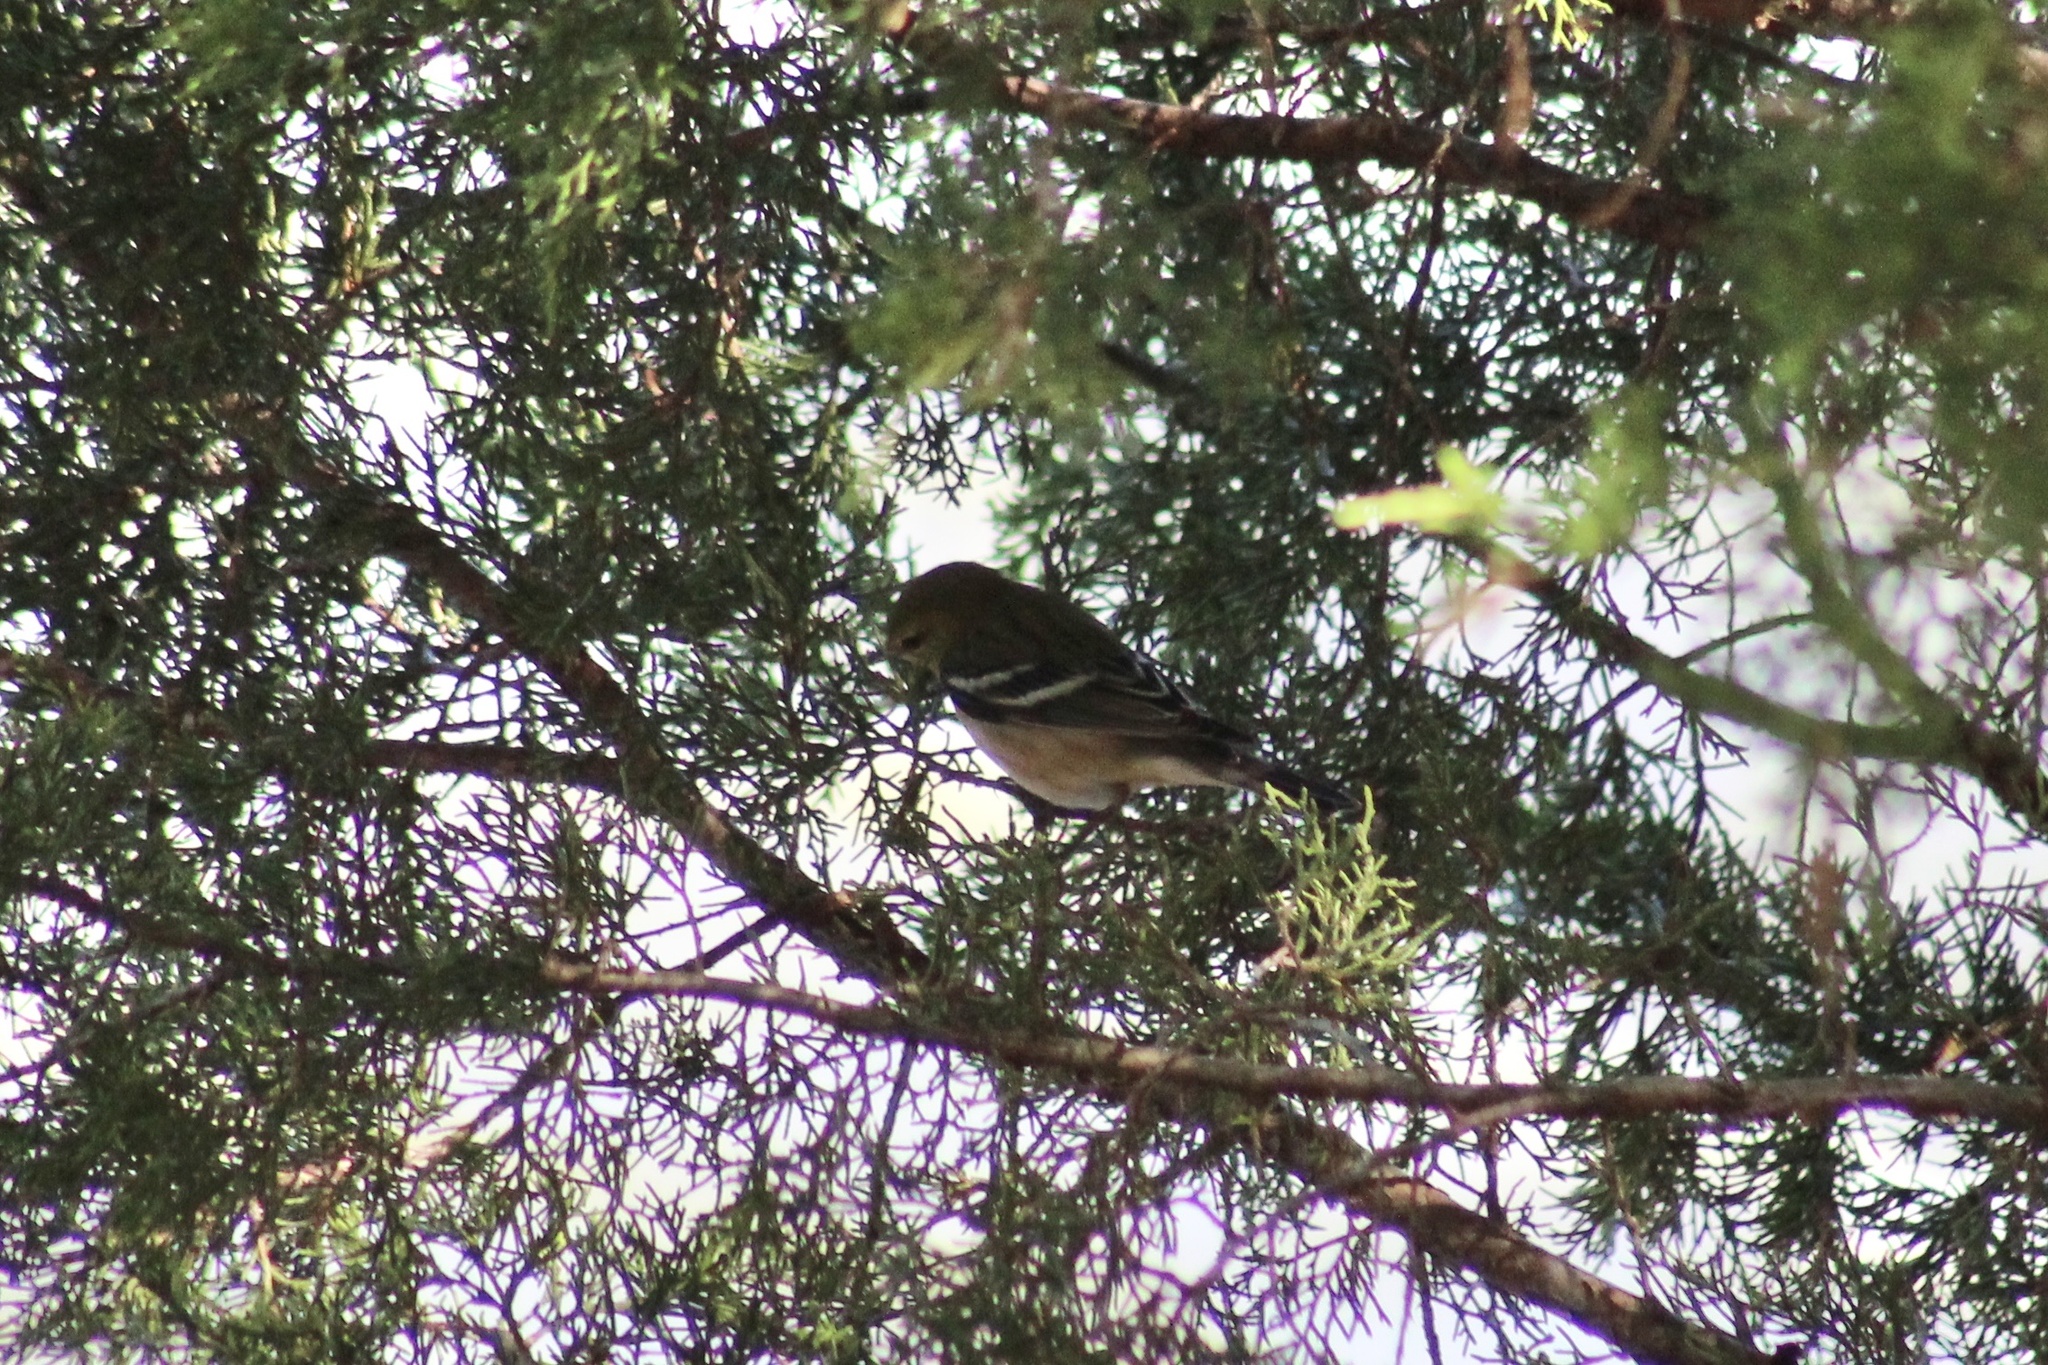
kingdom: Animalia
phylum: Chordata
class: Aves
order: Passeriformes
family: Parulidae
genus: Setophaga
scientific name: Setophaga castanea
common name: Bay-breasted warbler
